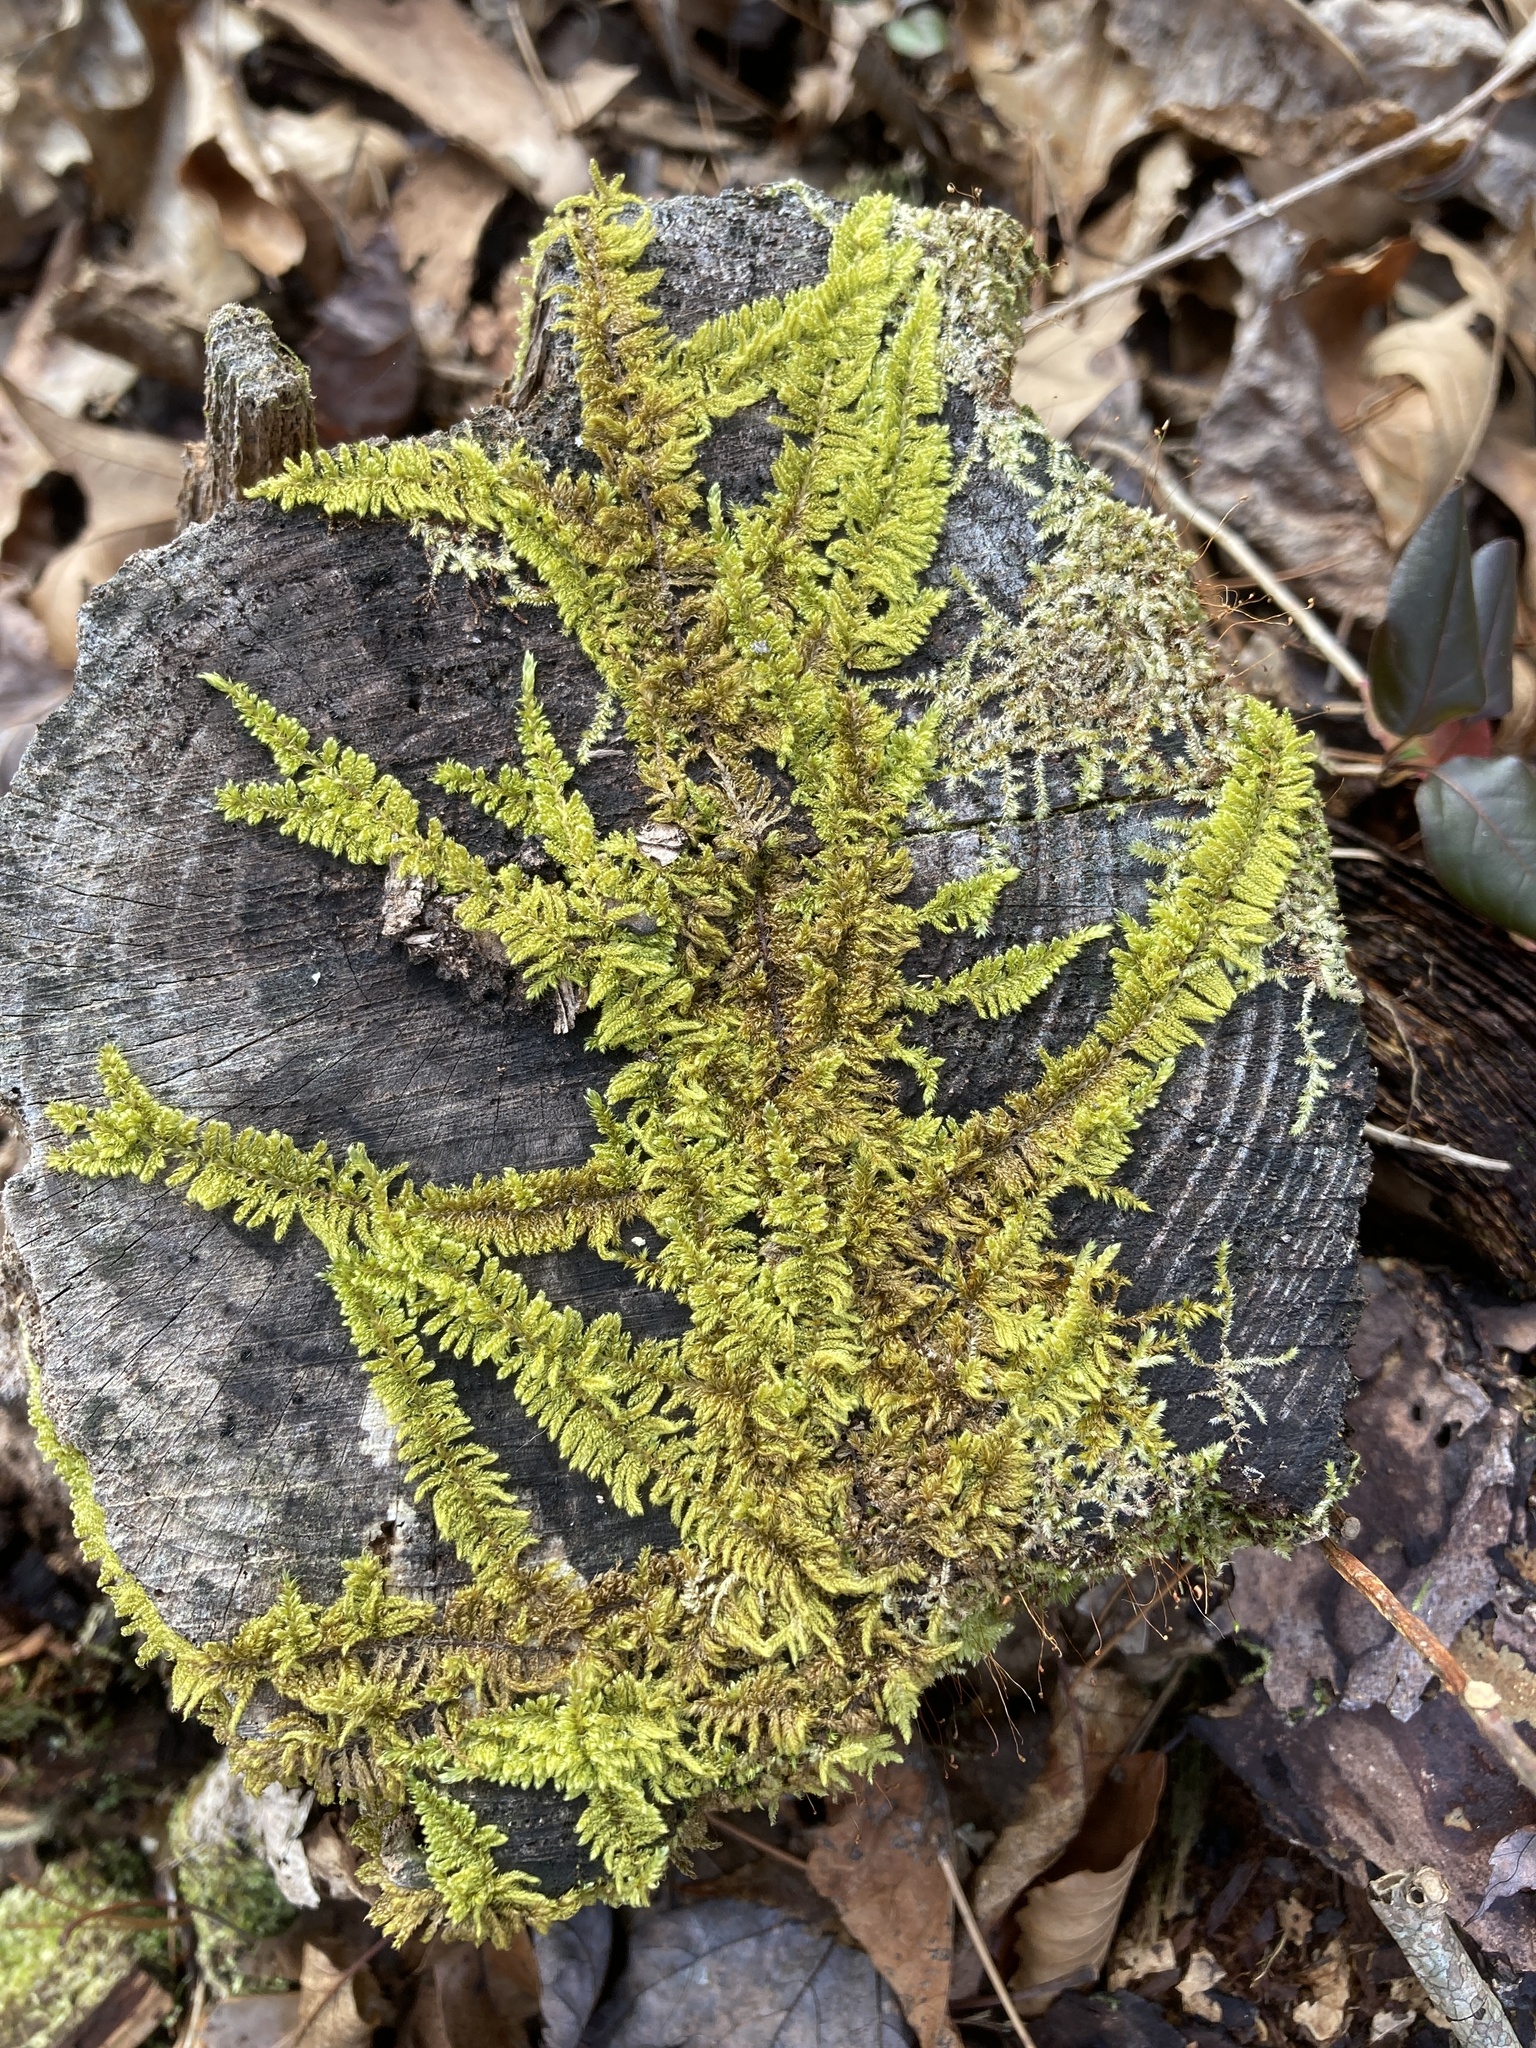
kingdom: Plantae
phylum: Bryophyta
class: Bryopsida
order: Hypnales
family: Callicladiaceae
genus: Callicladium
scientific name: Callicladium imponens
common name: Brocade moss
